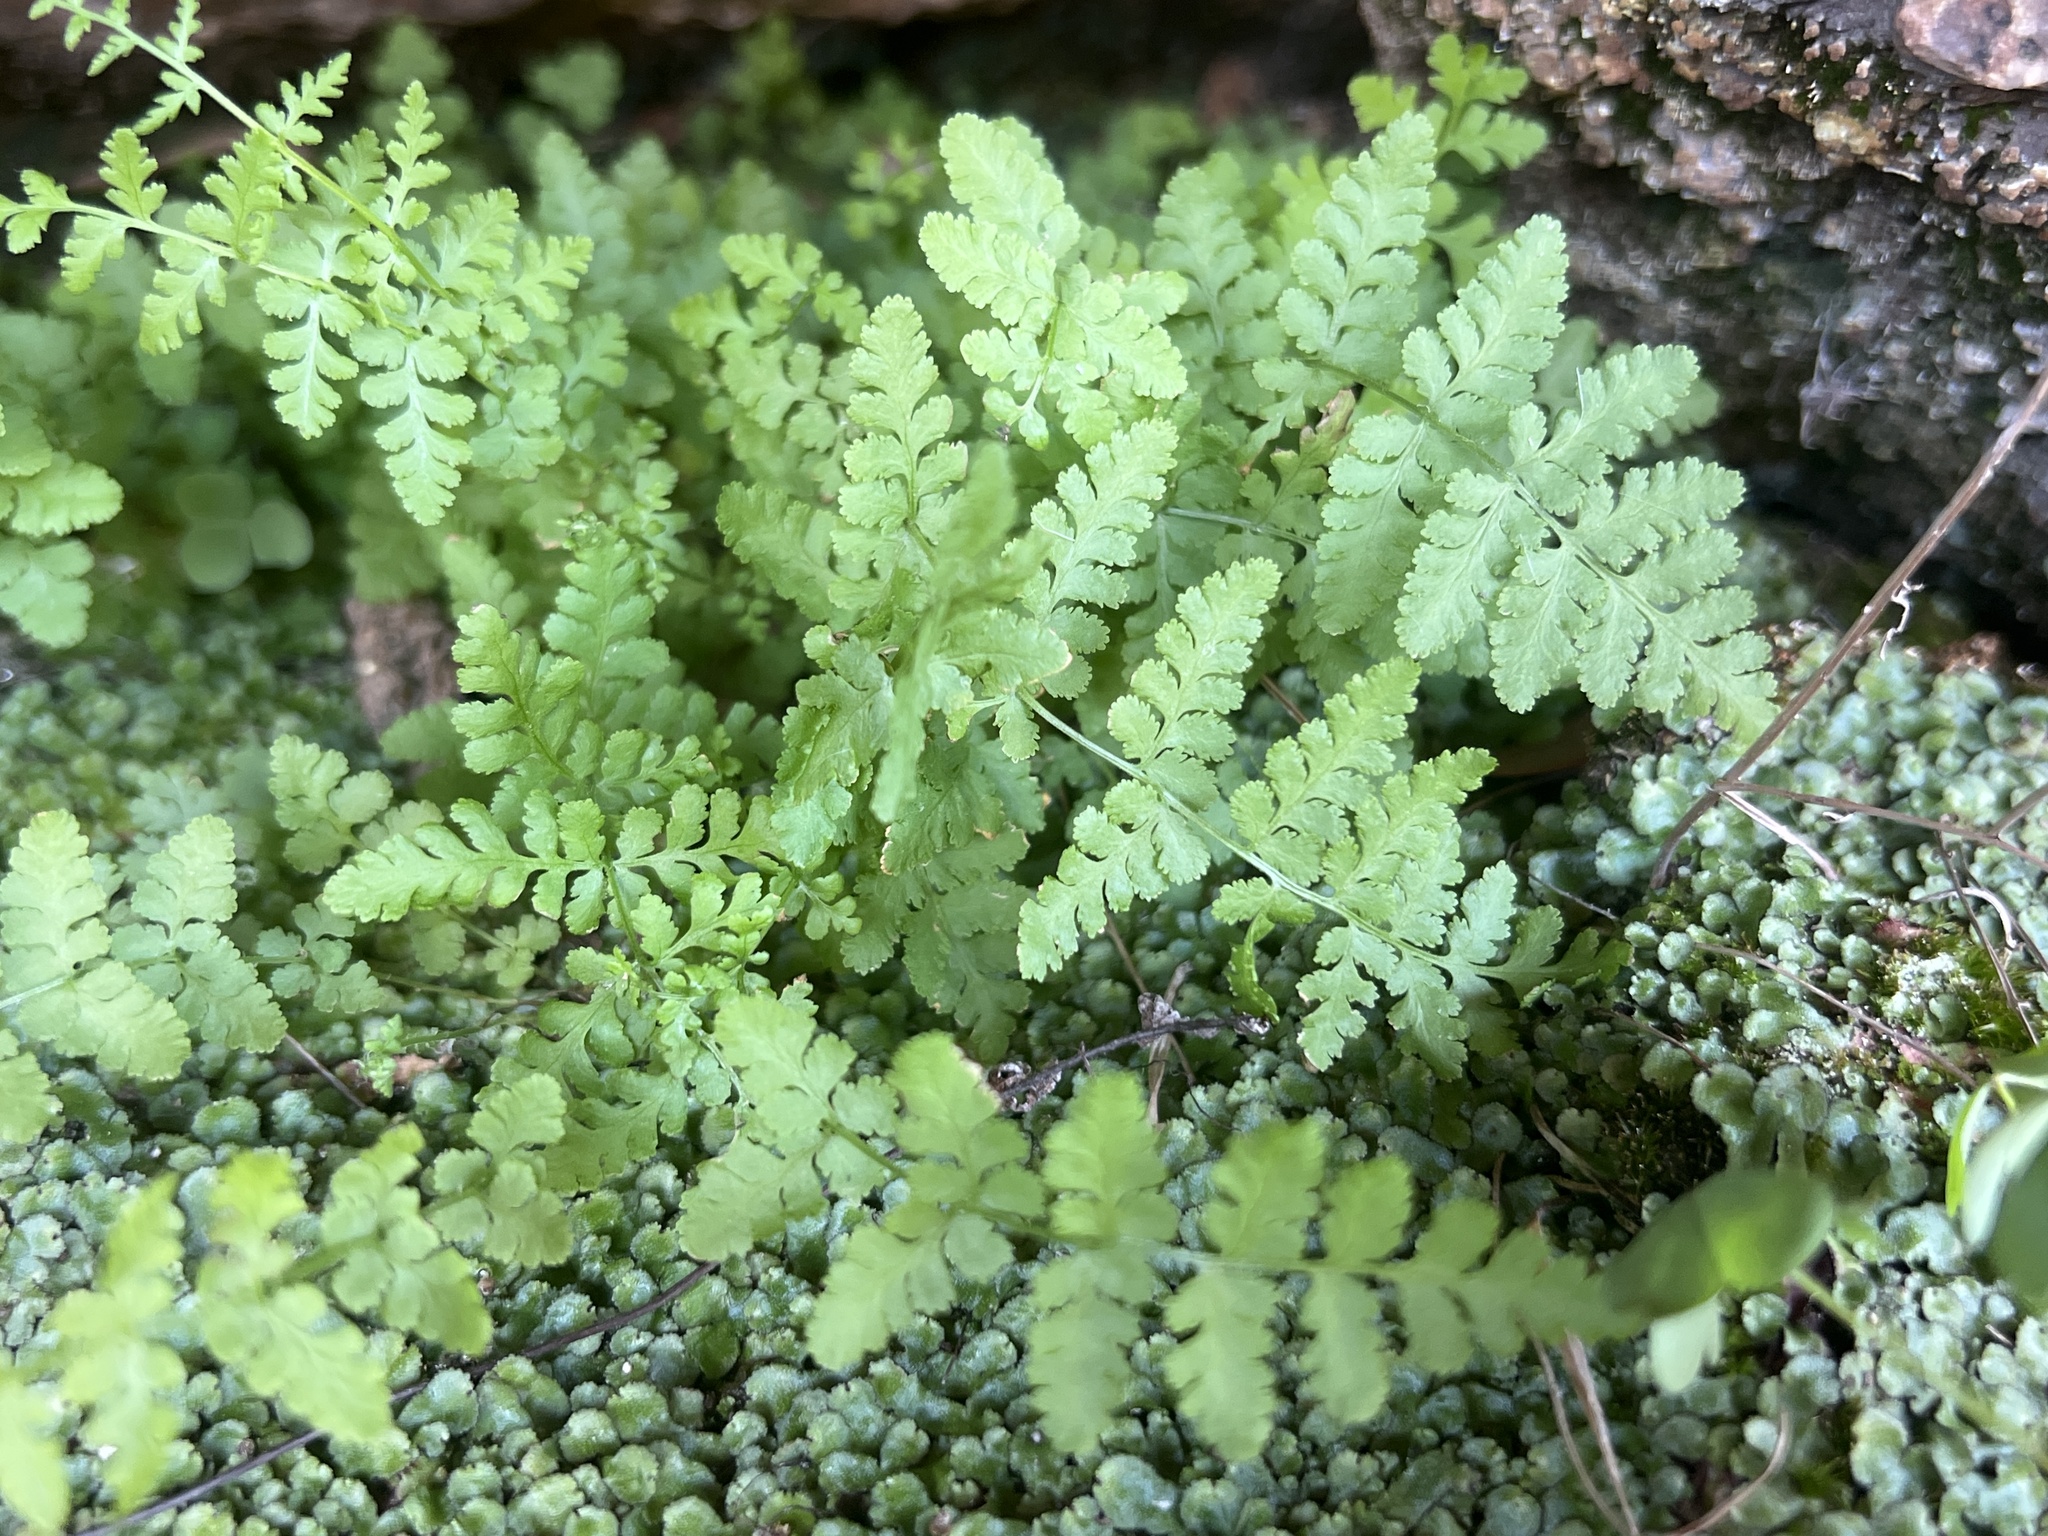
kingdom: Plantae
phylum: Tracheophyta
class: Polypodiopsida
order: Polypodiales
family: Woodsiaceae
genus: Physematium
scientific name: Physematium obtusum
